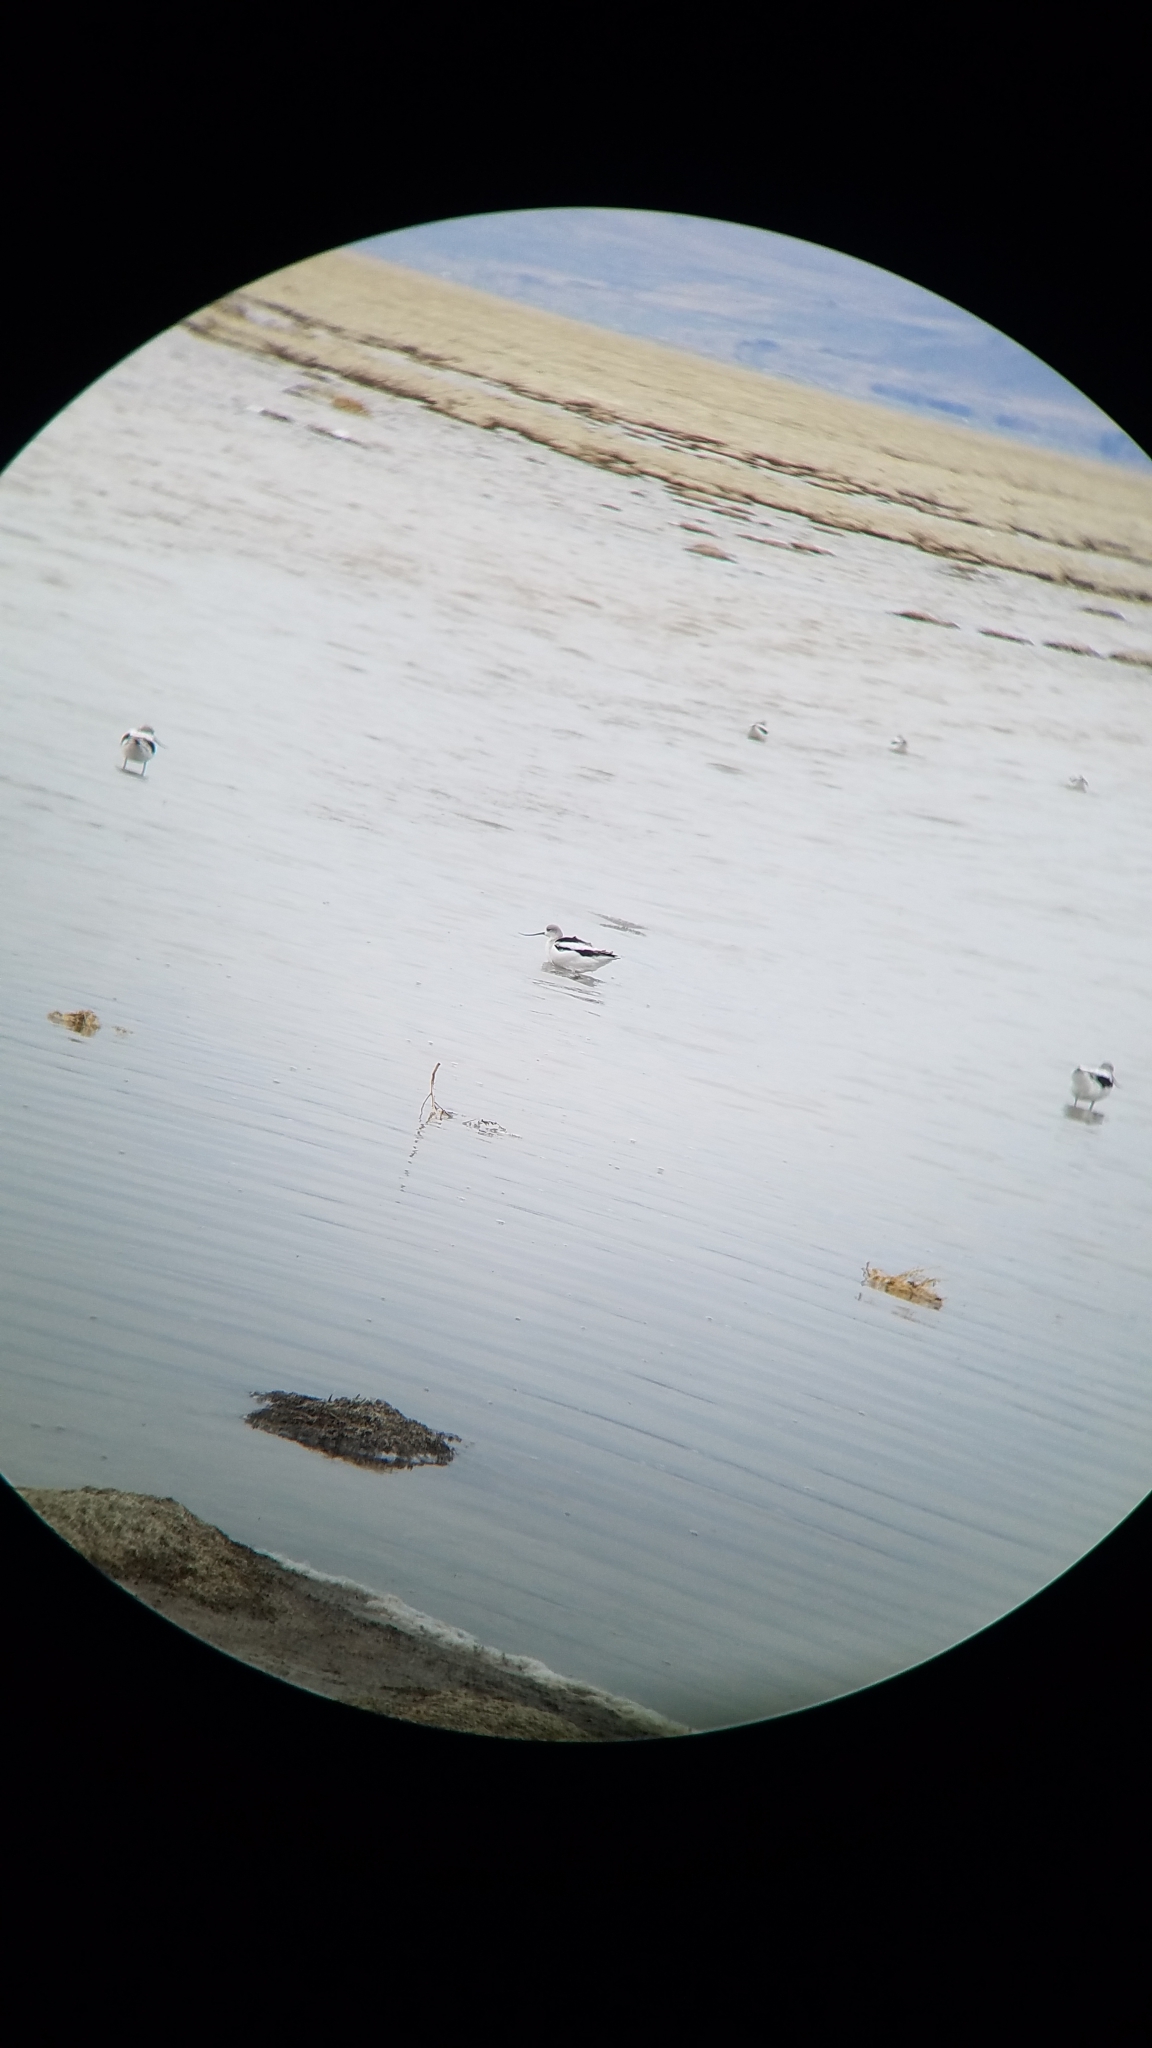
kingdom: Animalia
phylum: Chordata
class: Aves
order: Charadriiformes
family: Recurvirostridae
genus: Recurvirostra
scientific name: Recurvirostra americana
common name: American avocet
